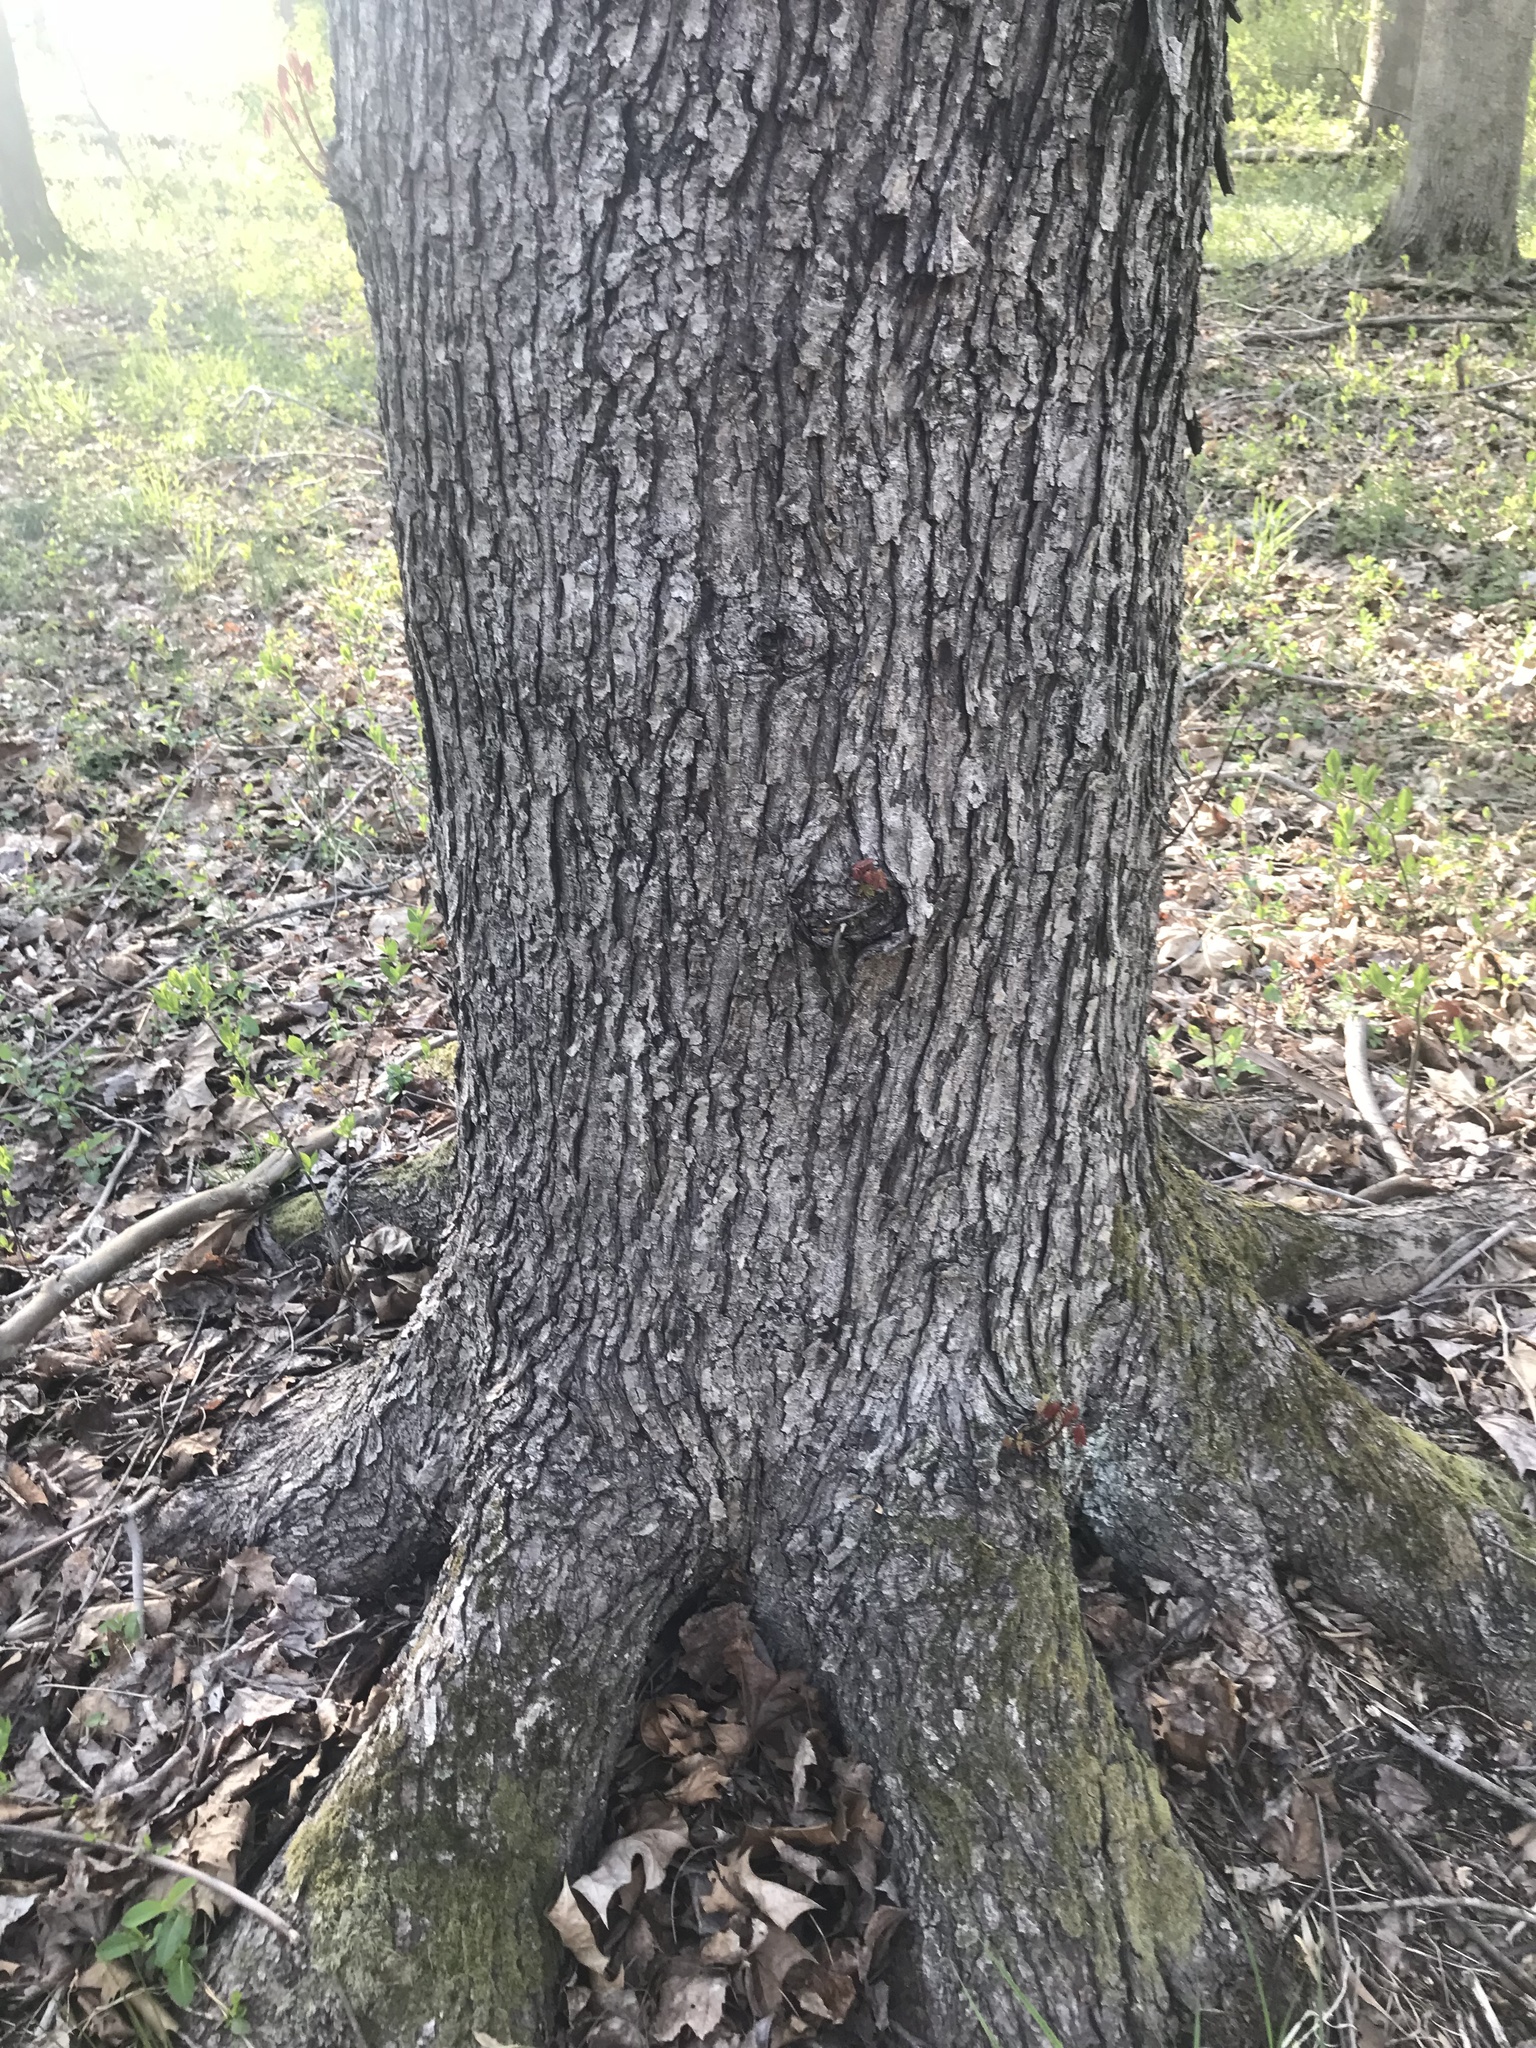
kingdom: Plantae
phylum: Tracheophyta
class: Magnoliopsida
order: Sapindales
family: Sapindaceae
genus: Acer
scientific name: Acer rubrum
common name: Red maple
